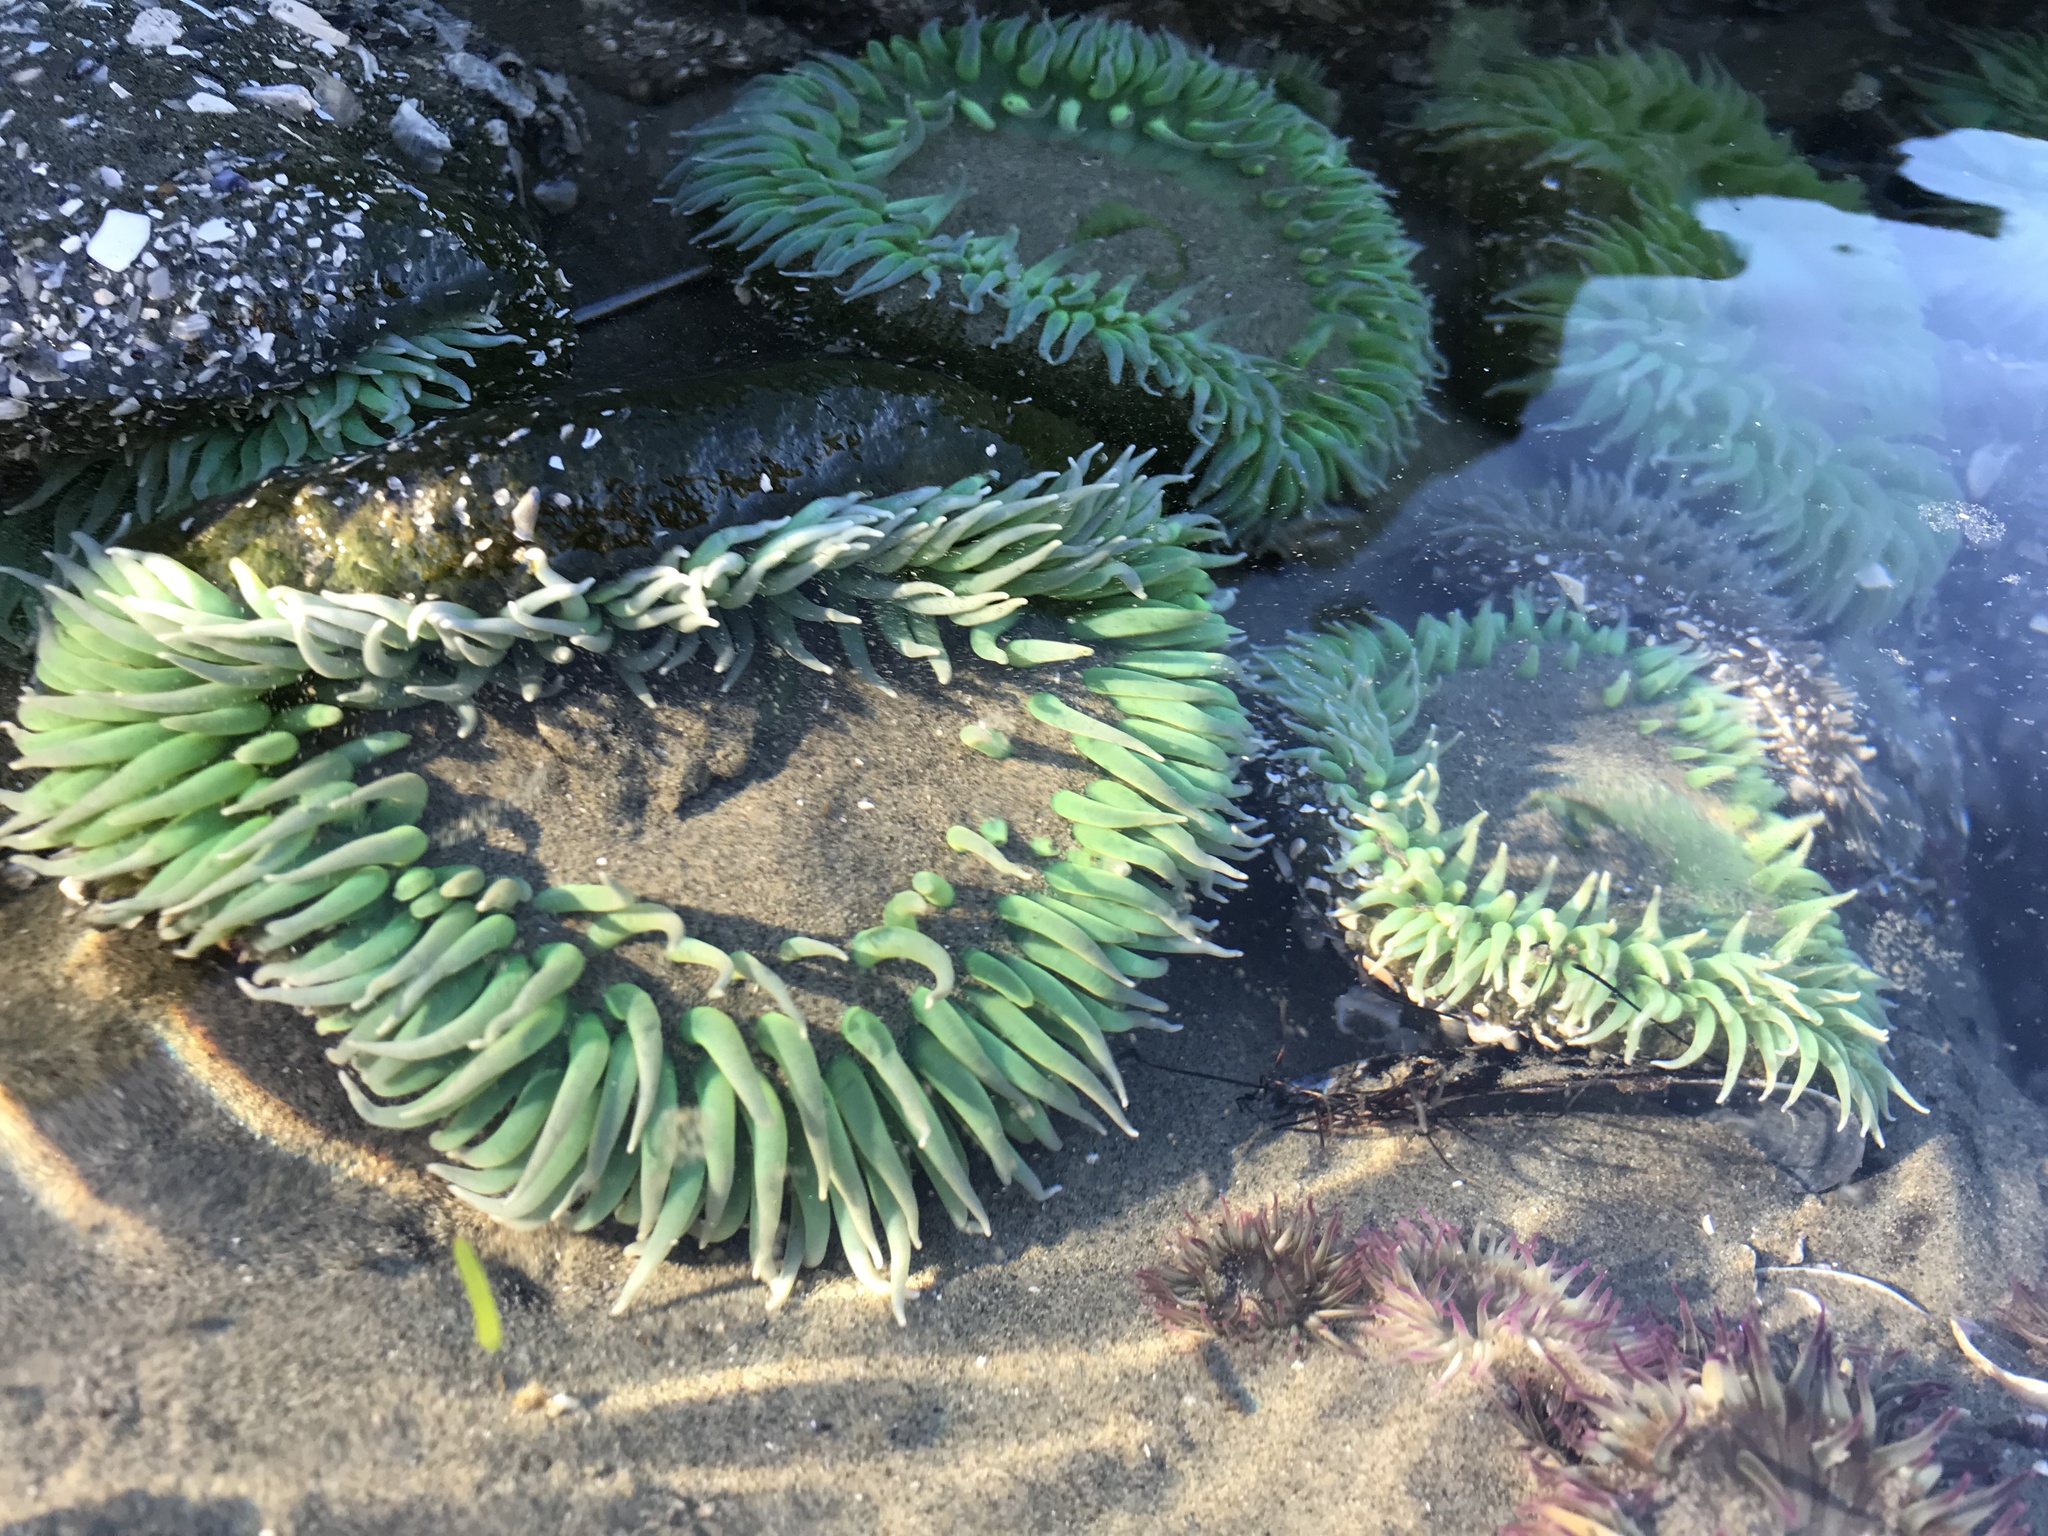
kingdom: Plantae
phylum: Chlorophyta
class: Trebouxiophyceae
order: Prasiolales
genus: Elliptochloris
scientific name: Elliptochloris marina
